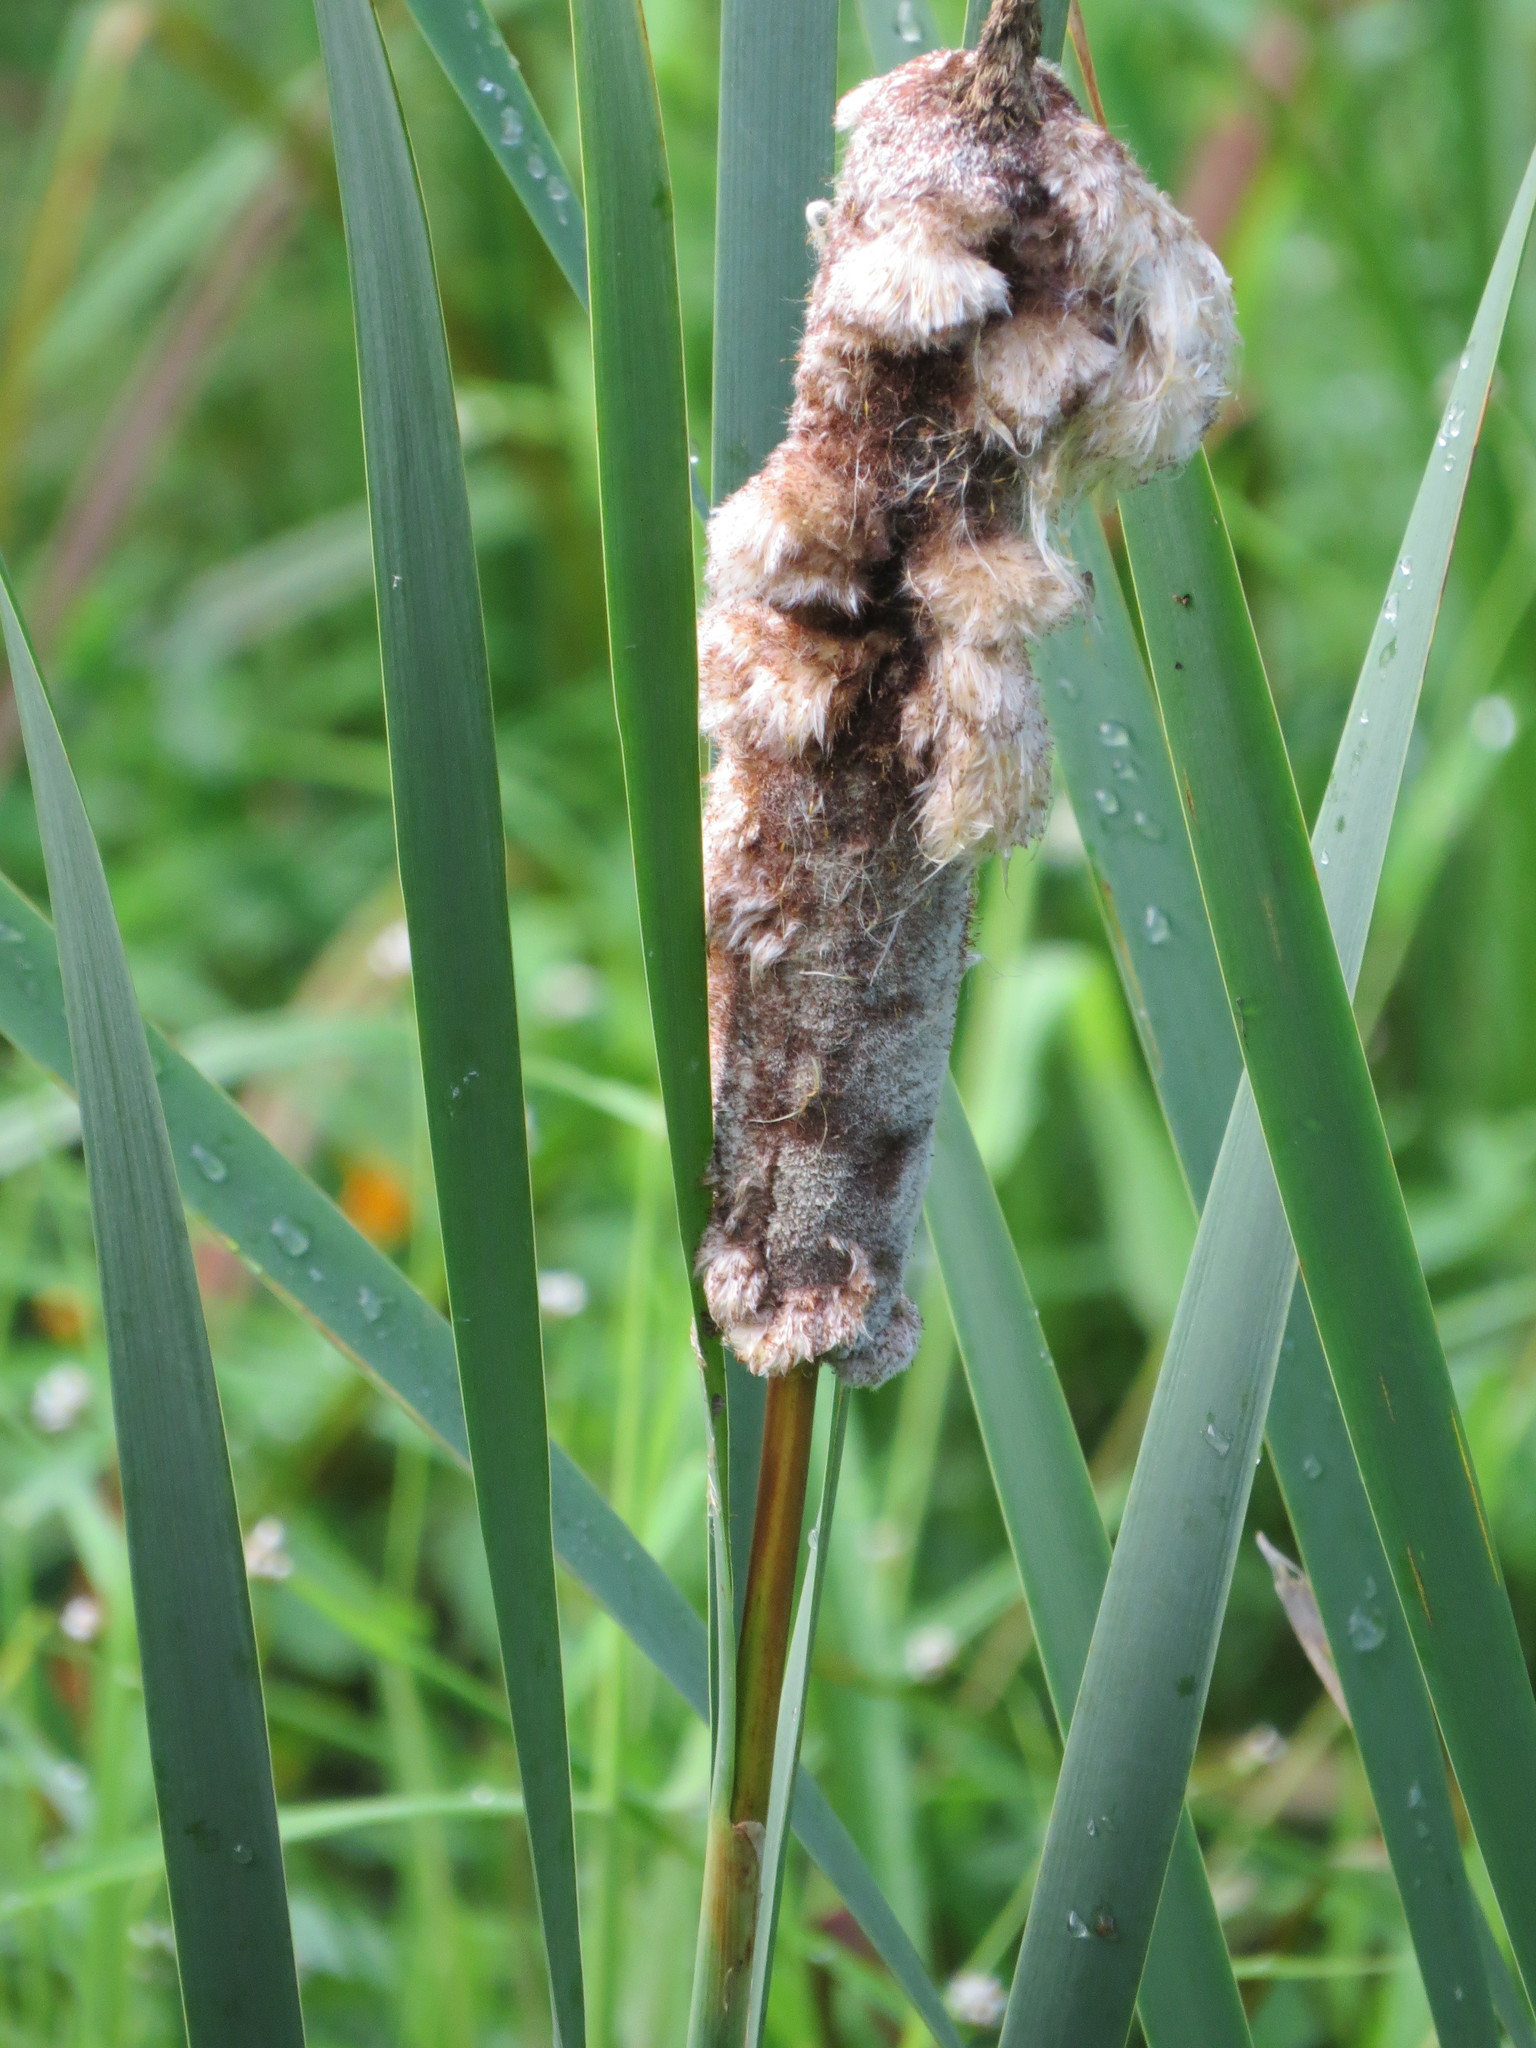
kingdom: Plantae
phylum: Tracheophyta
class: Liliopsida
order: Poales
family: Typhaceae
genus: Typha
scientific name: Typha latifolia
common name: Broadleaf cattail
